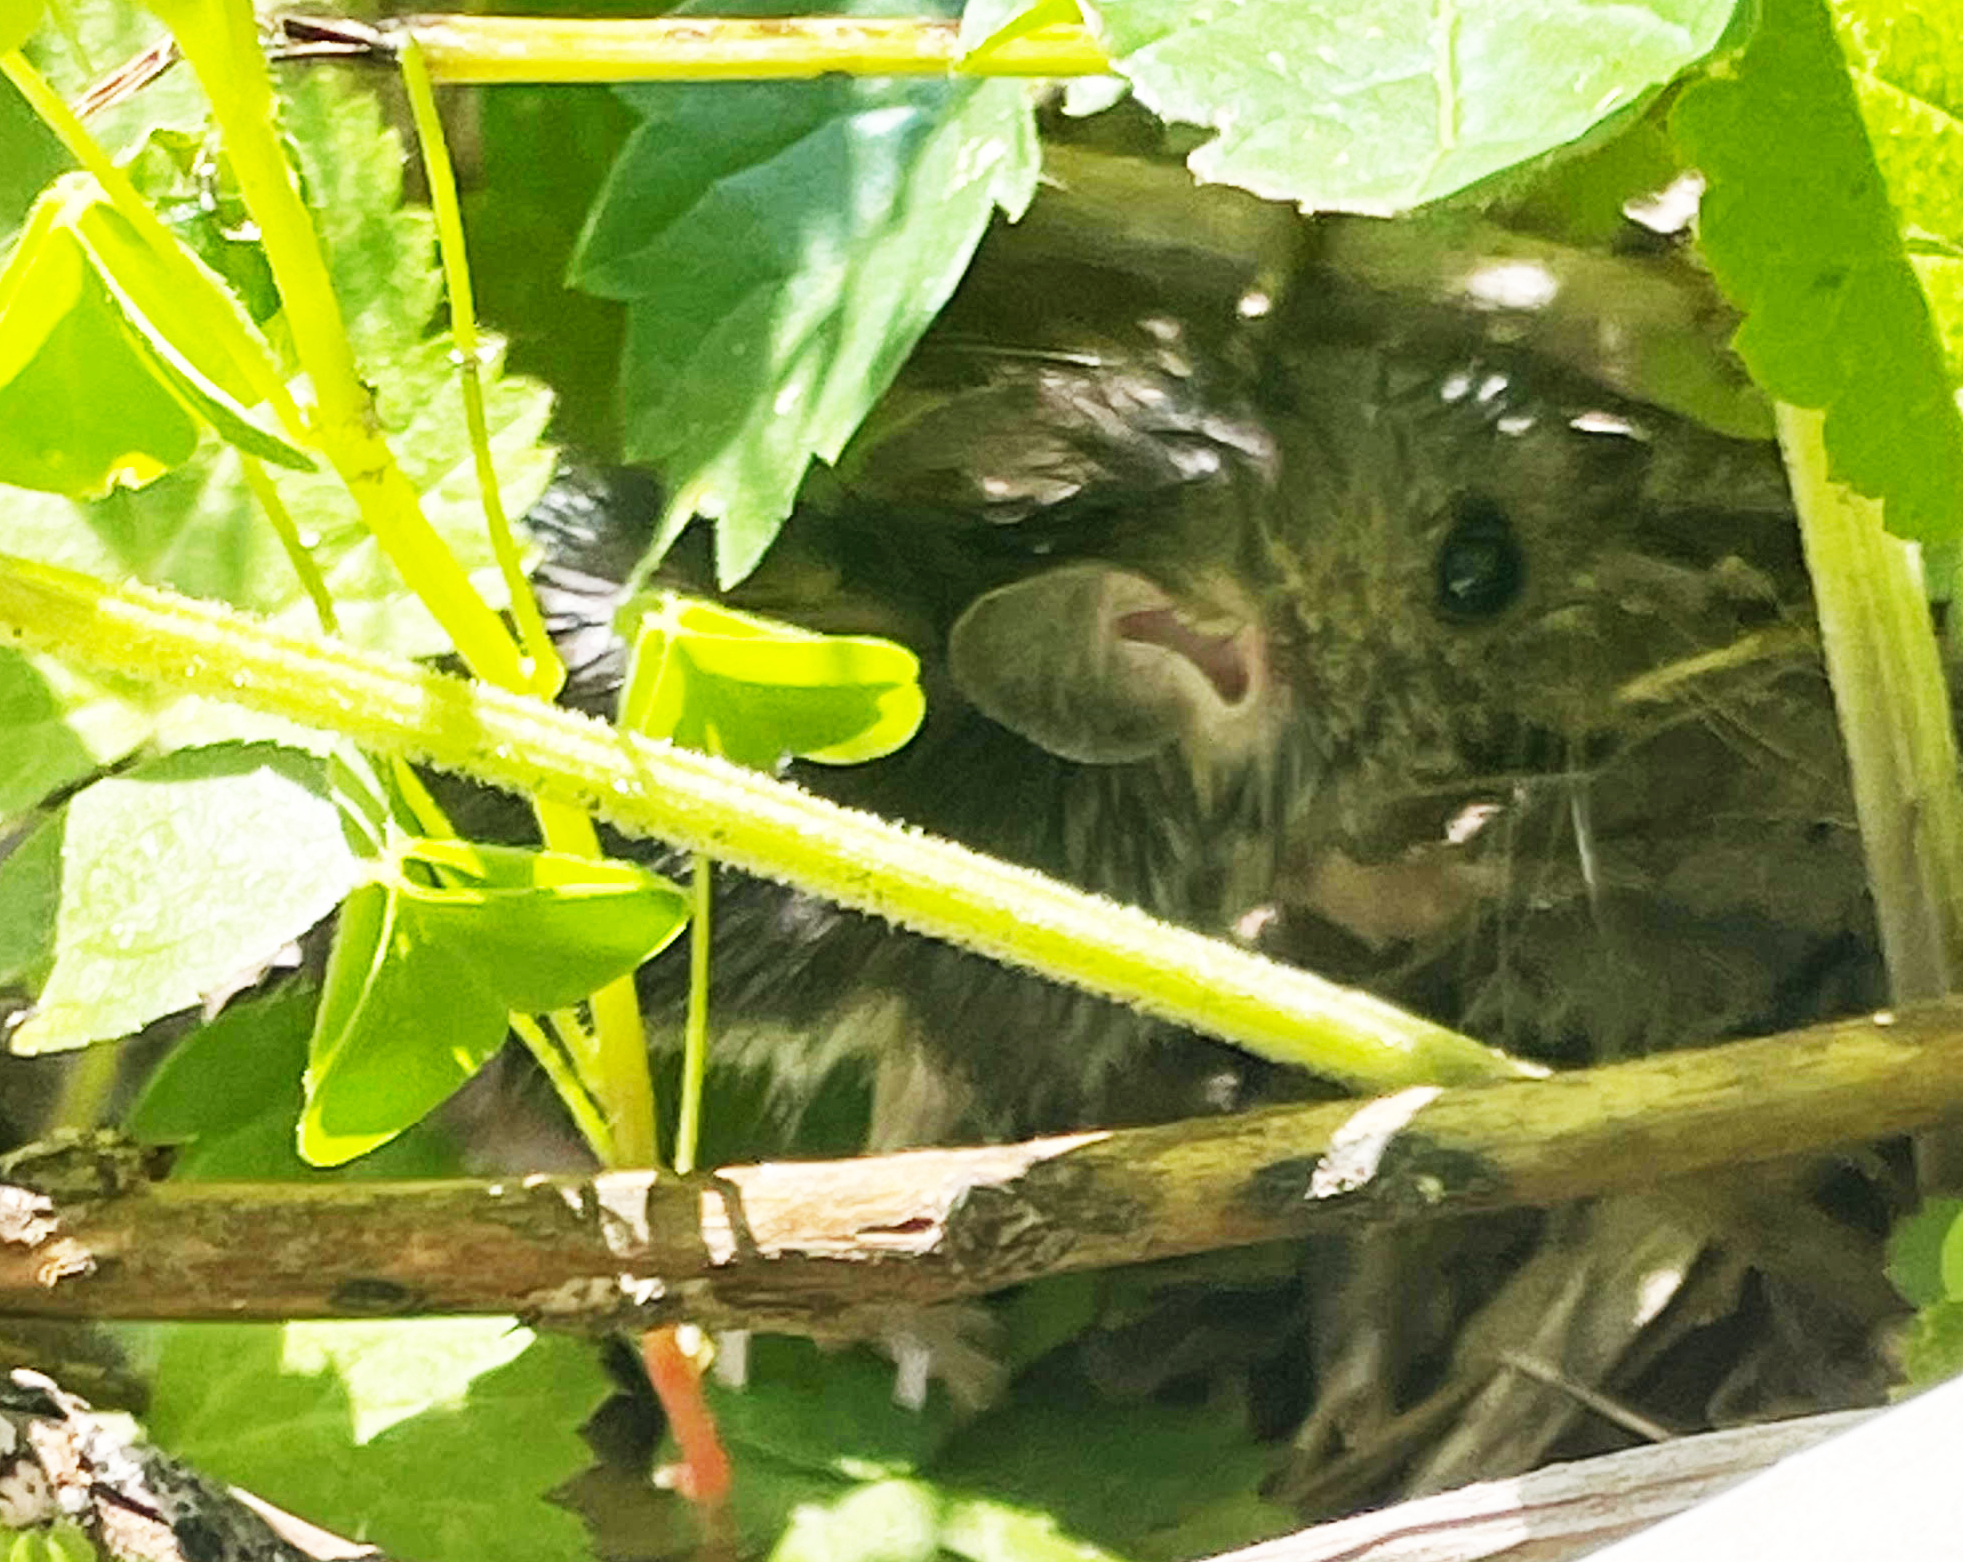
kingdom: Animalia
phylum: Chordata
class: Mammalia
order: Rodentia
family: Cricetidae
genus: Peromyscus
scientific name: Peromyscus
